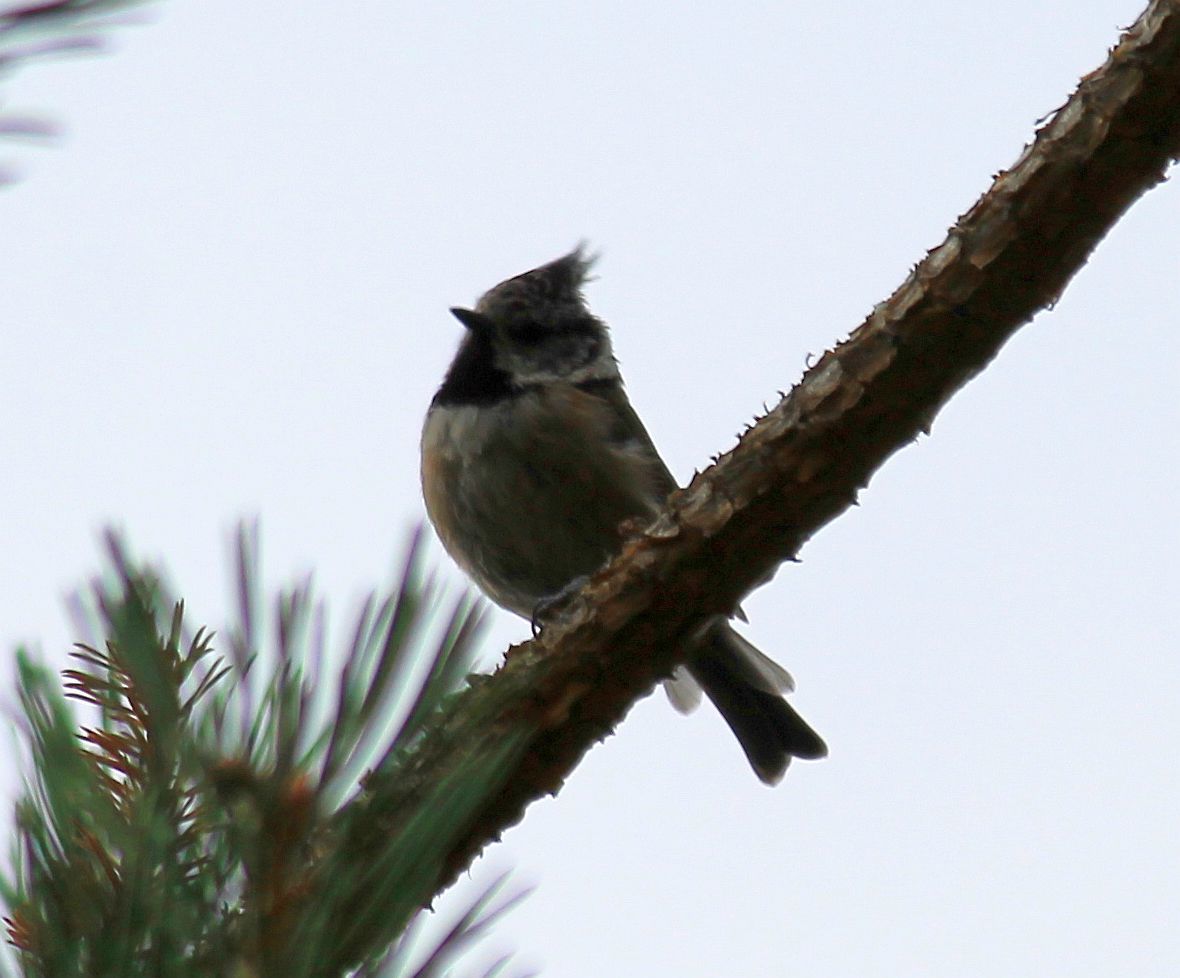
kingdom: Animalia
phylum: Chordata
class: Aves
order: Passeriformes
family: Paridae
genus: Lophophanes
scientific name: Lophophanes cristatus
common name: European crested tit
